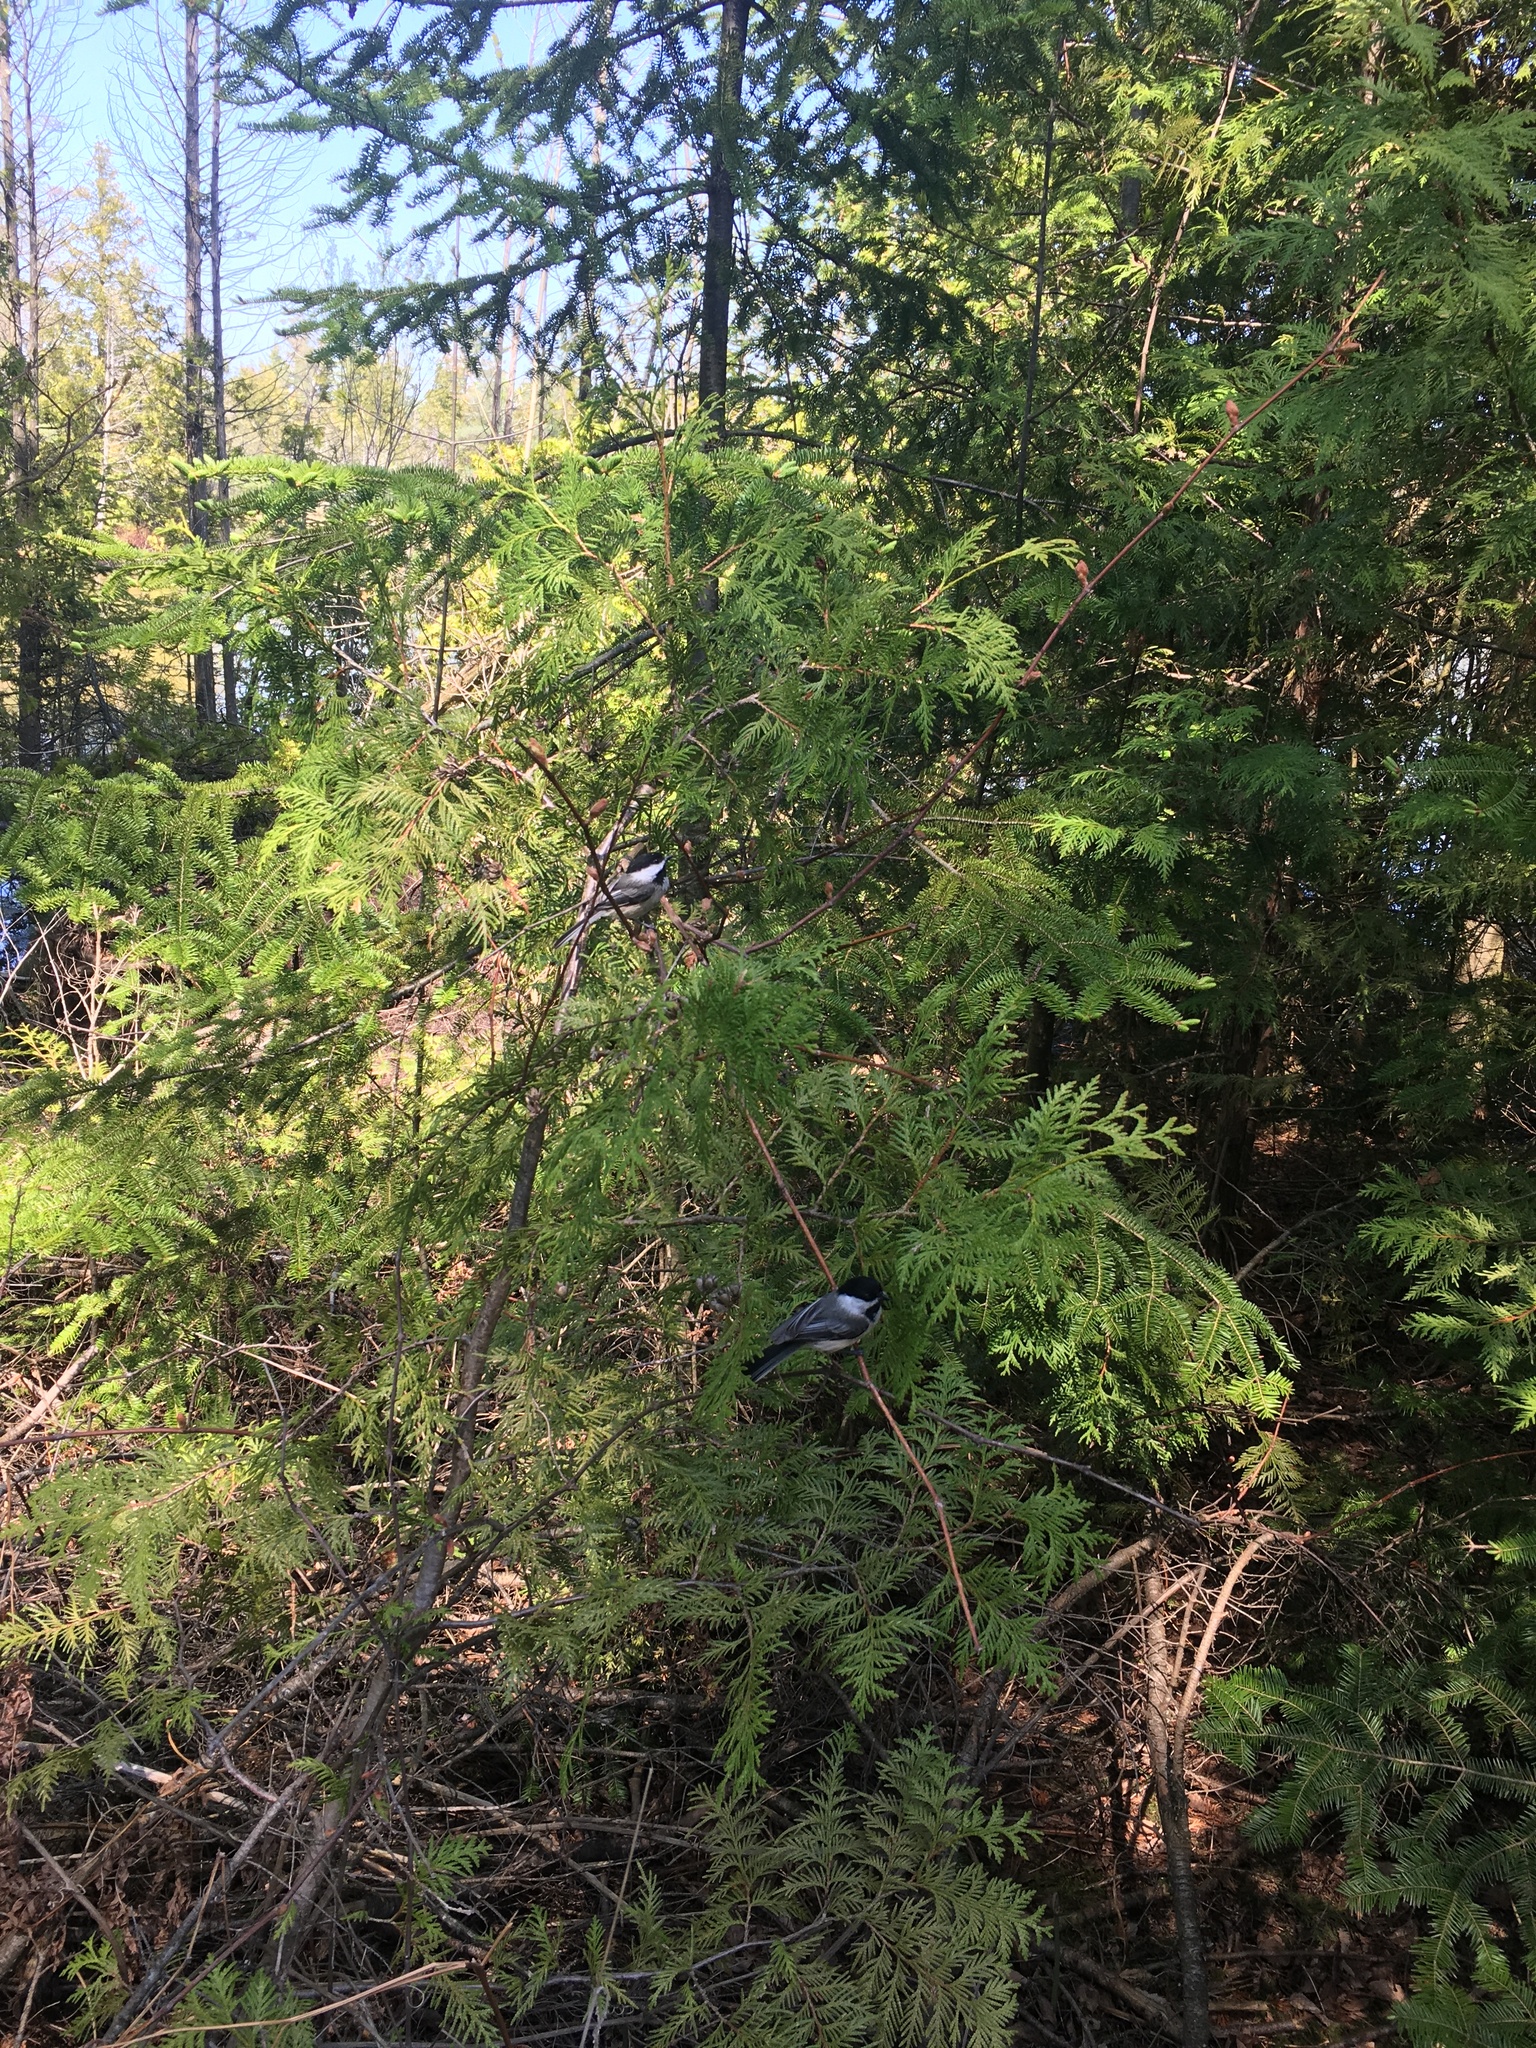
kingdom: Animalia
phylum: Chordata
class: Aves
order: Passeriformes
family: Paridae
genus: Poecile
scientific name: Poecile atricapillus
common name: Black-capped chickadee
